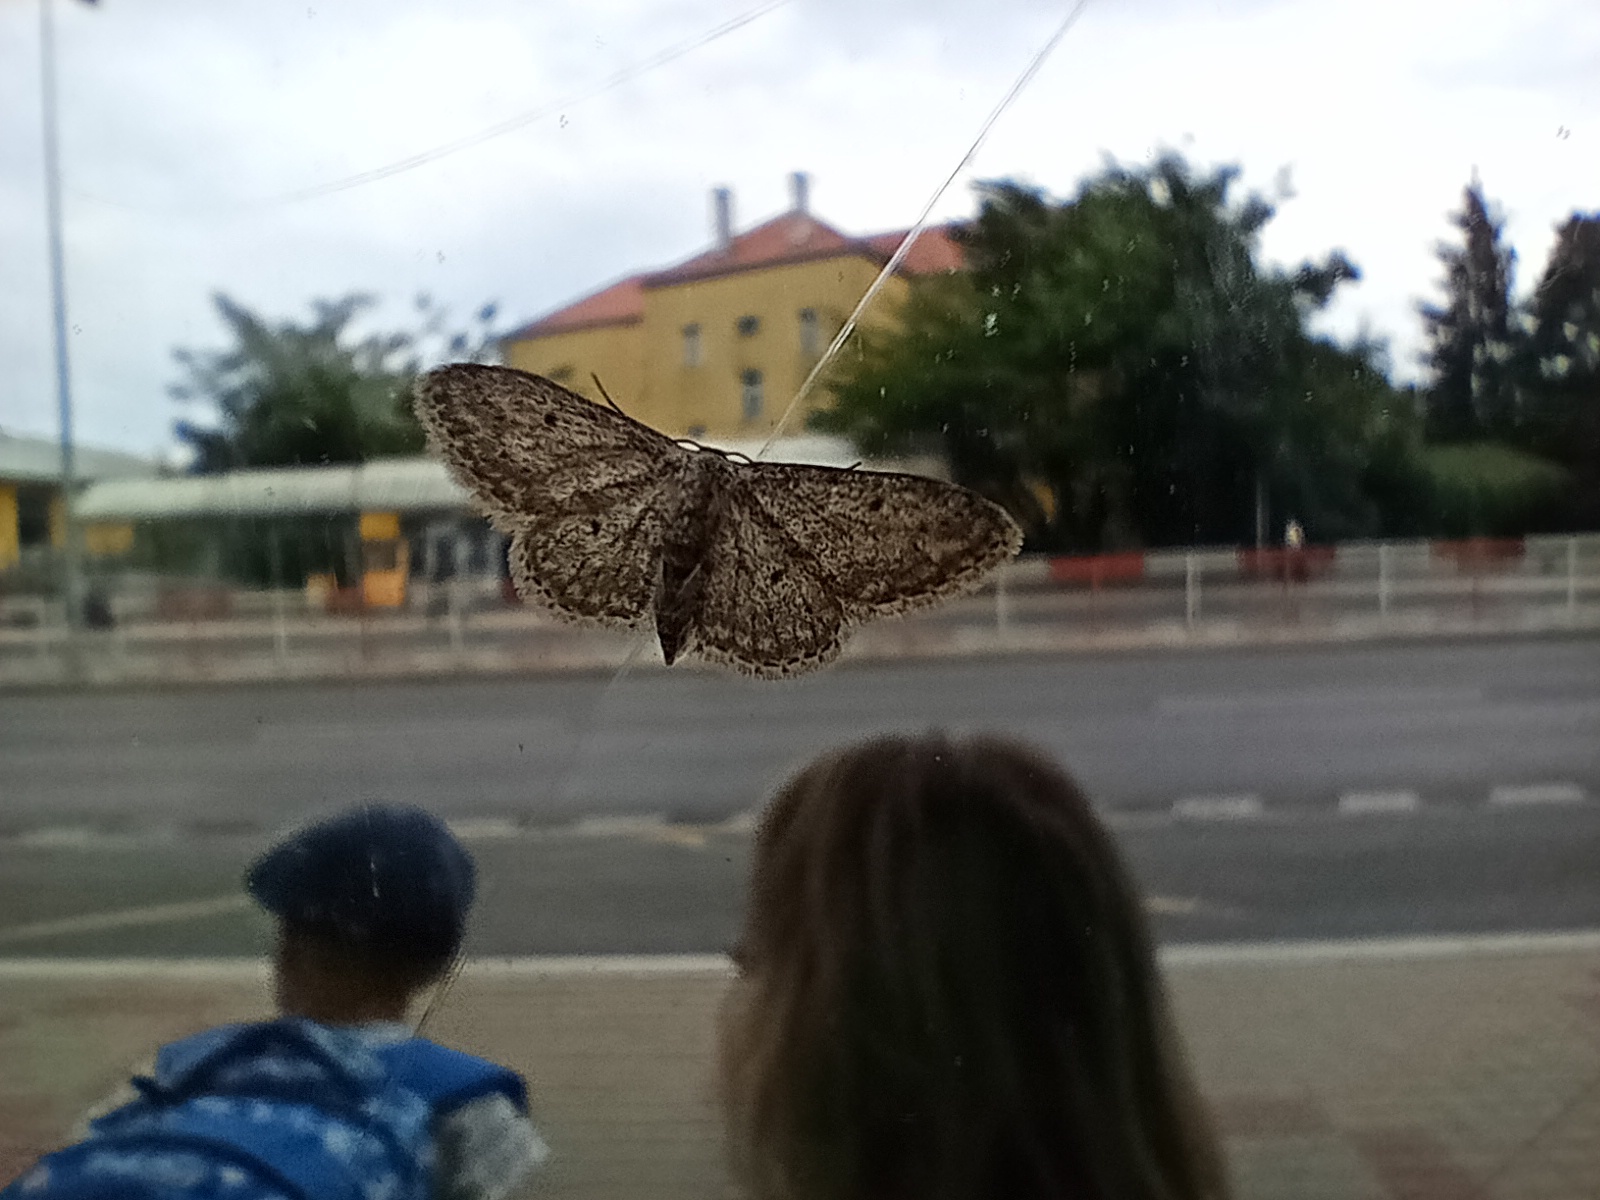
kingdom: Animalia
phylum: Arthropoda
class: Insecta
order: Lepidoptera
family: Geometridae
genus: Idaea
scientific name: Idaea seriata
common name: Small dusty wave
